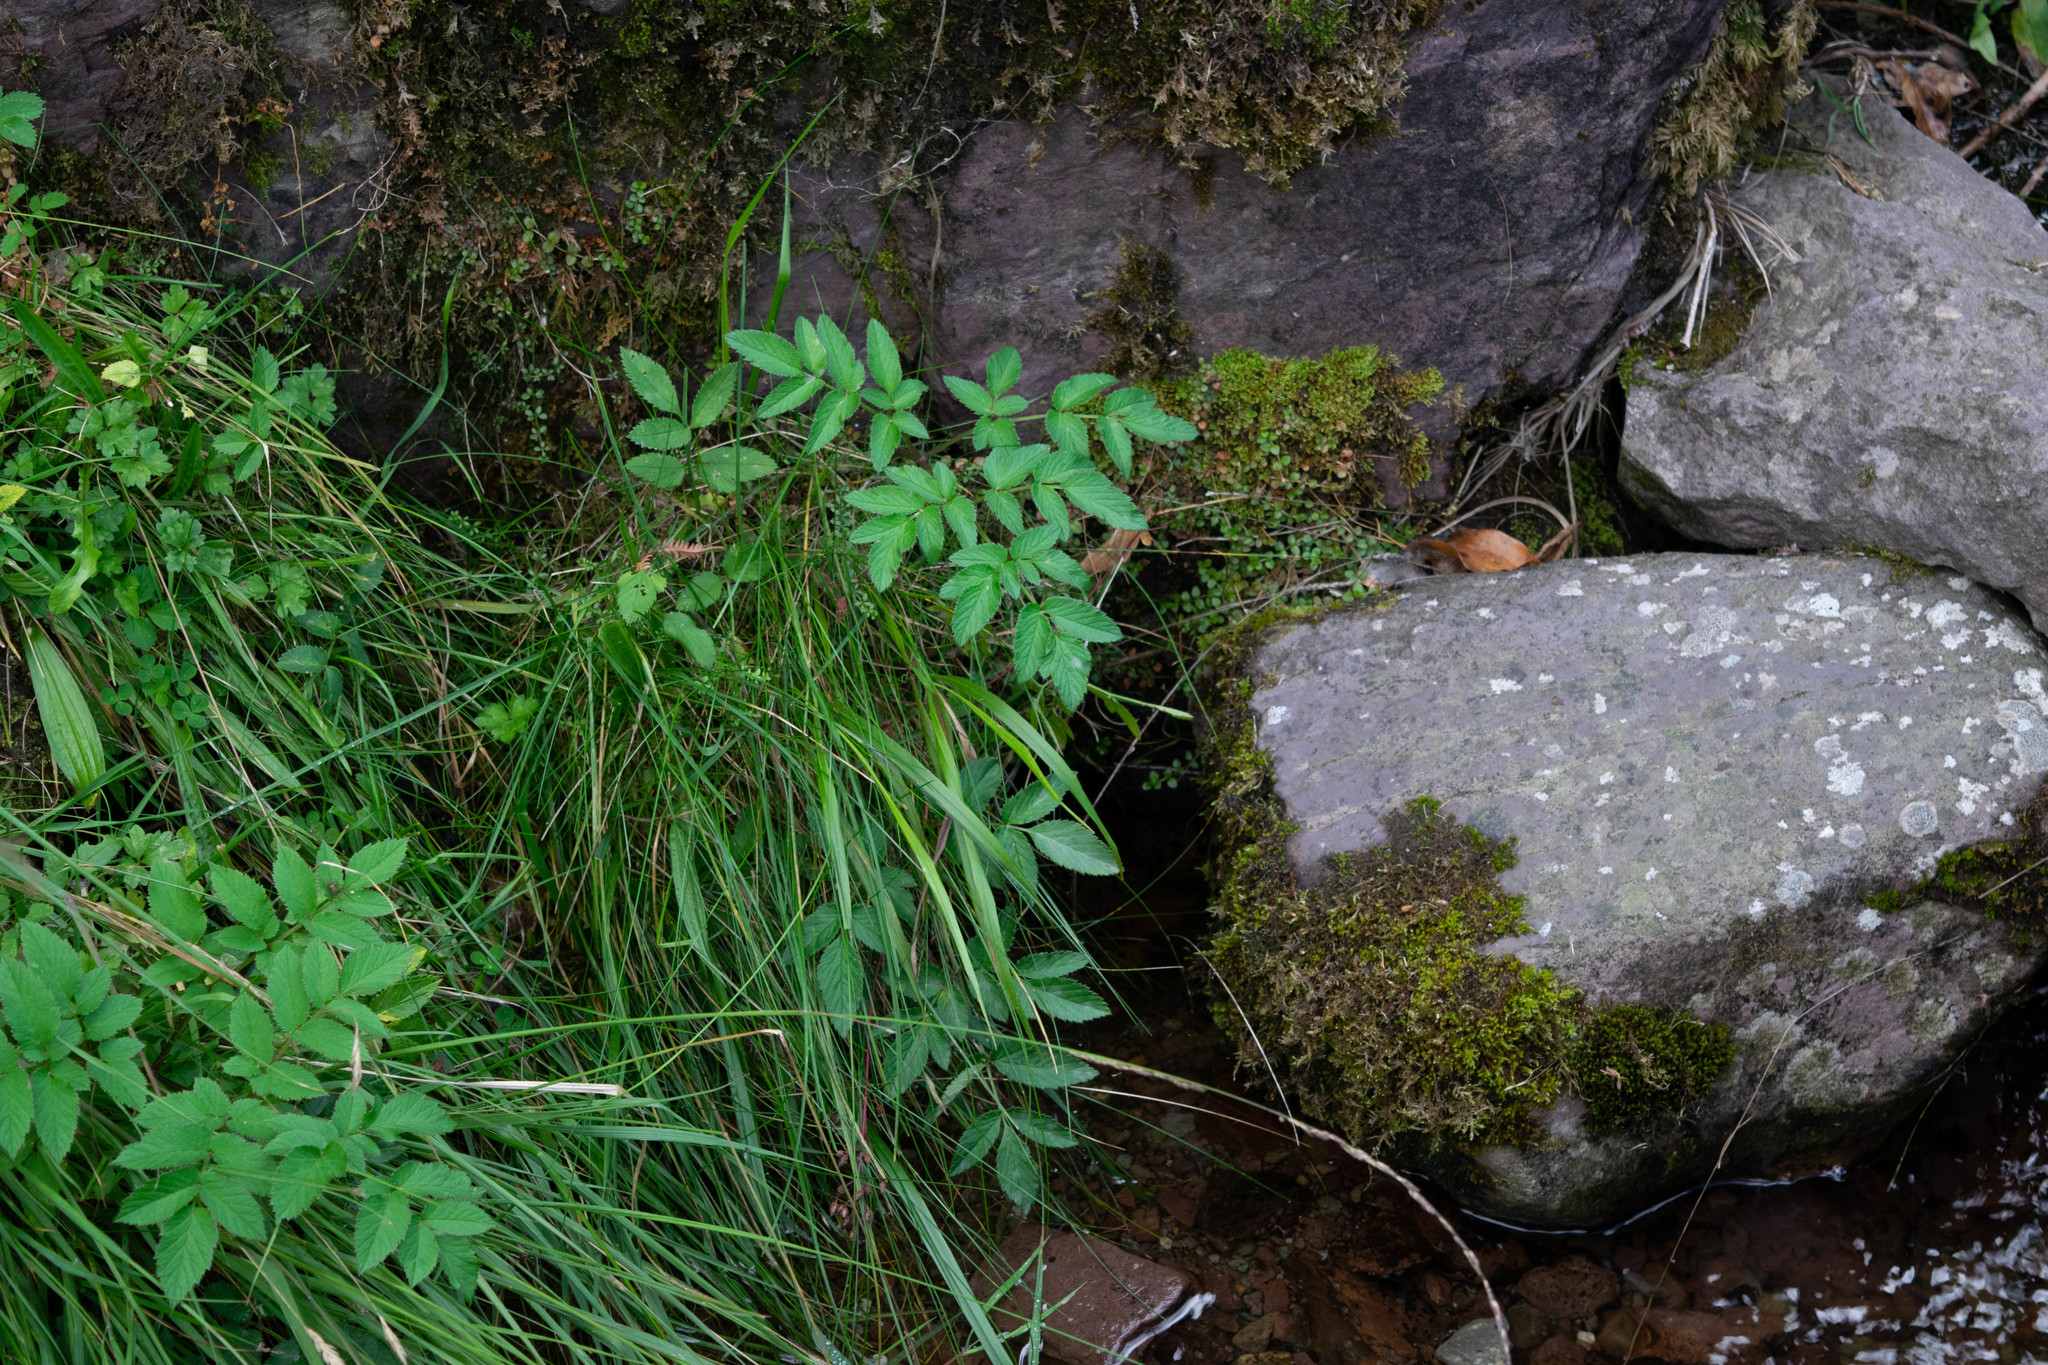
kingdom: Plantae
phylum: Tracheophyta
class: Magnoliopsida
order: Apiales
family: Apiaceae
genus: Angelica
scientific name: Angelica sylvestris
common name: Wild angelica
